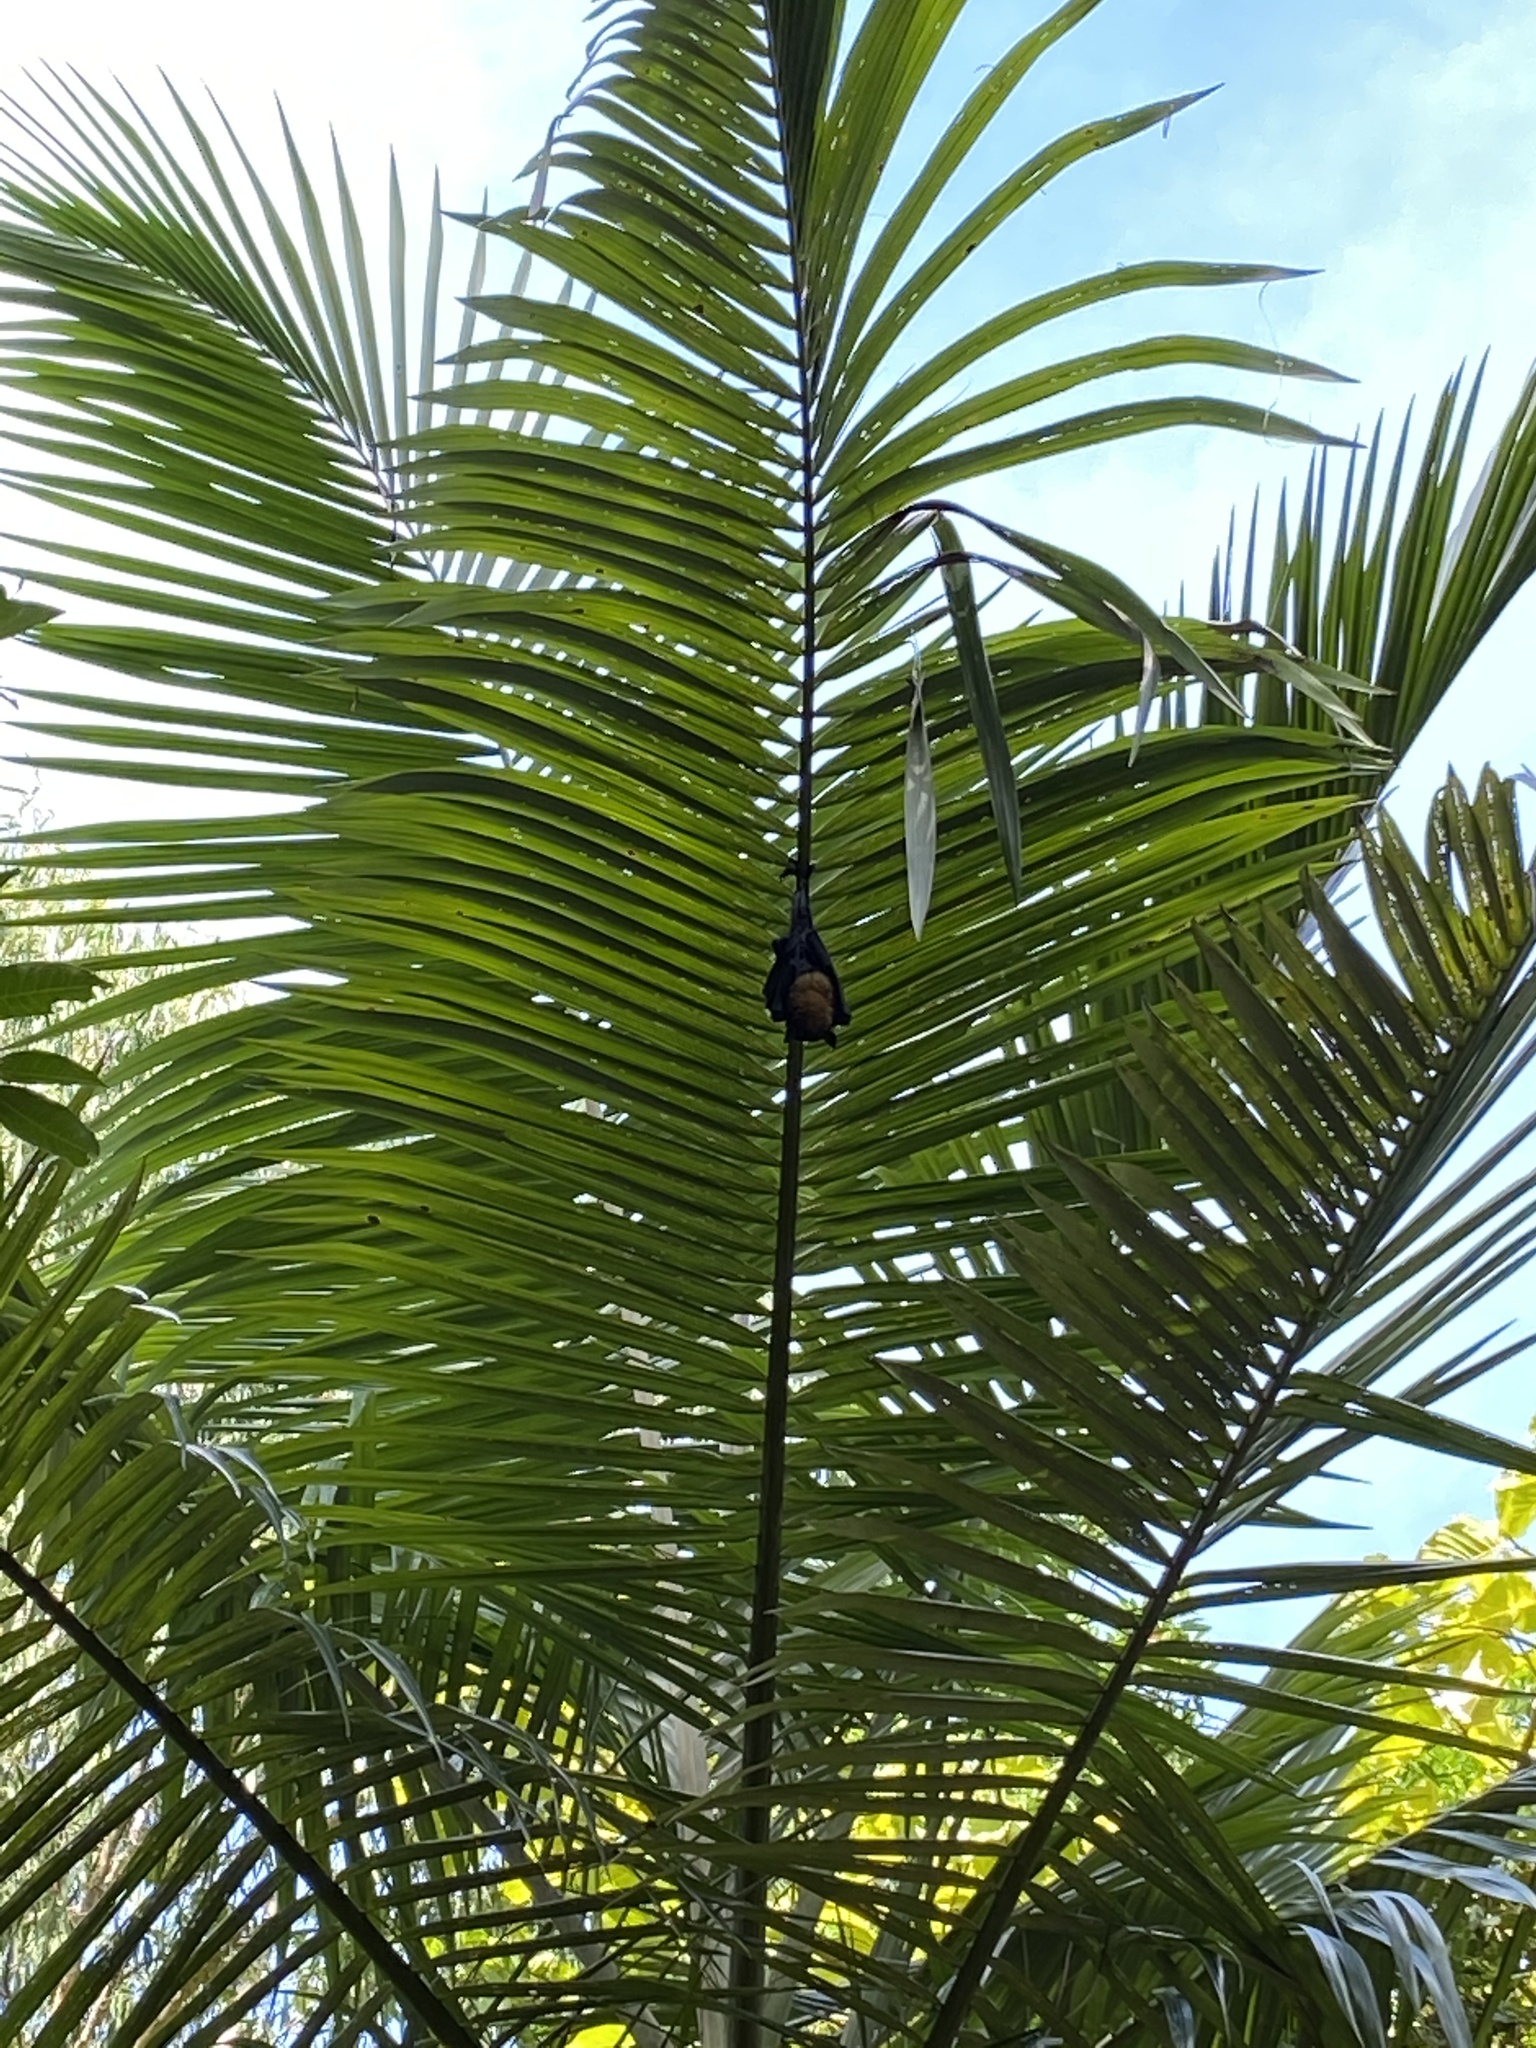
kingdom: Animalia
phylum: Chordata
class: Mammalia
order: Chiroptera
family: Pteropodidae
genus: Pteropus
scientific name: Pteropus conspicillatus
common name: Spectacled flying fox
